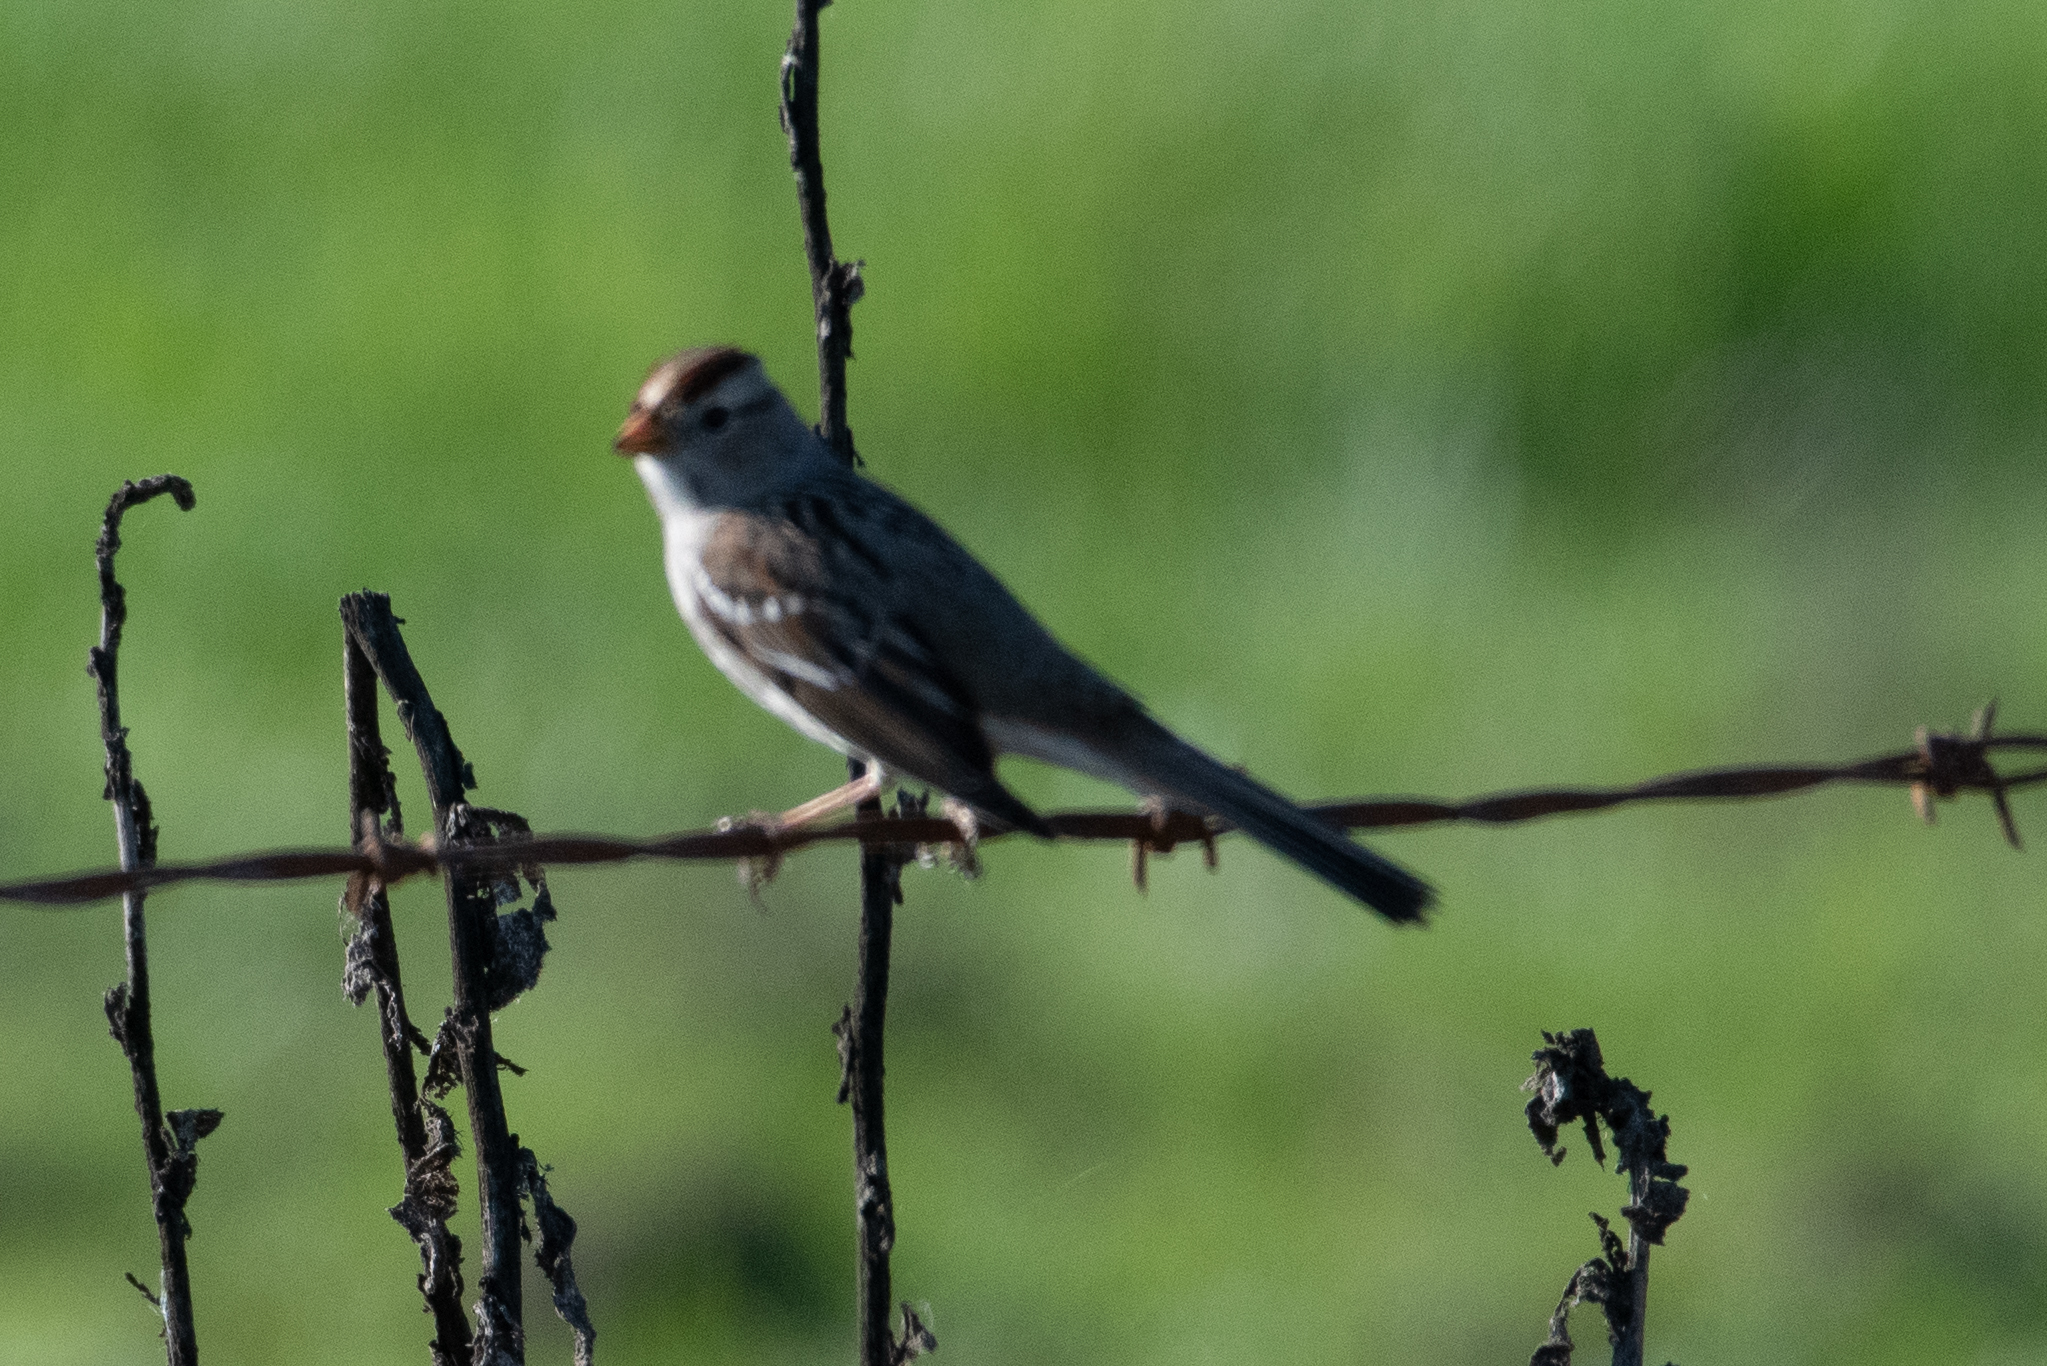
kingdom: Animalia
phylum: Chordata
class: Aves
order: Passeriformes
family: Passerellidae
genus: Zonotrichia
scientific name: Zonotrichia leucophrys
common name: White-crowned sparrow
